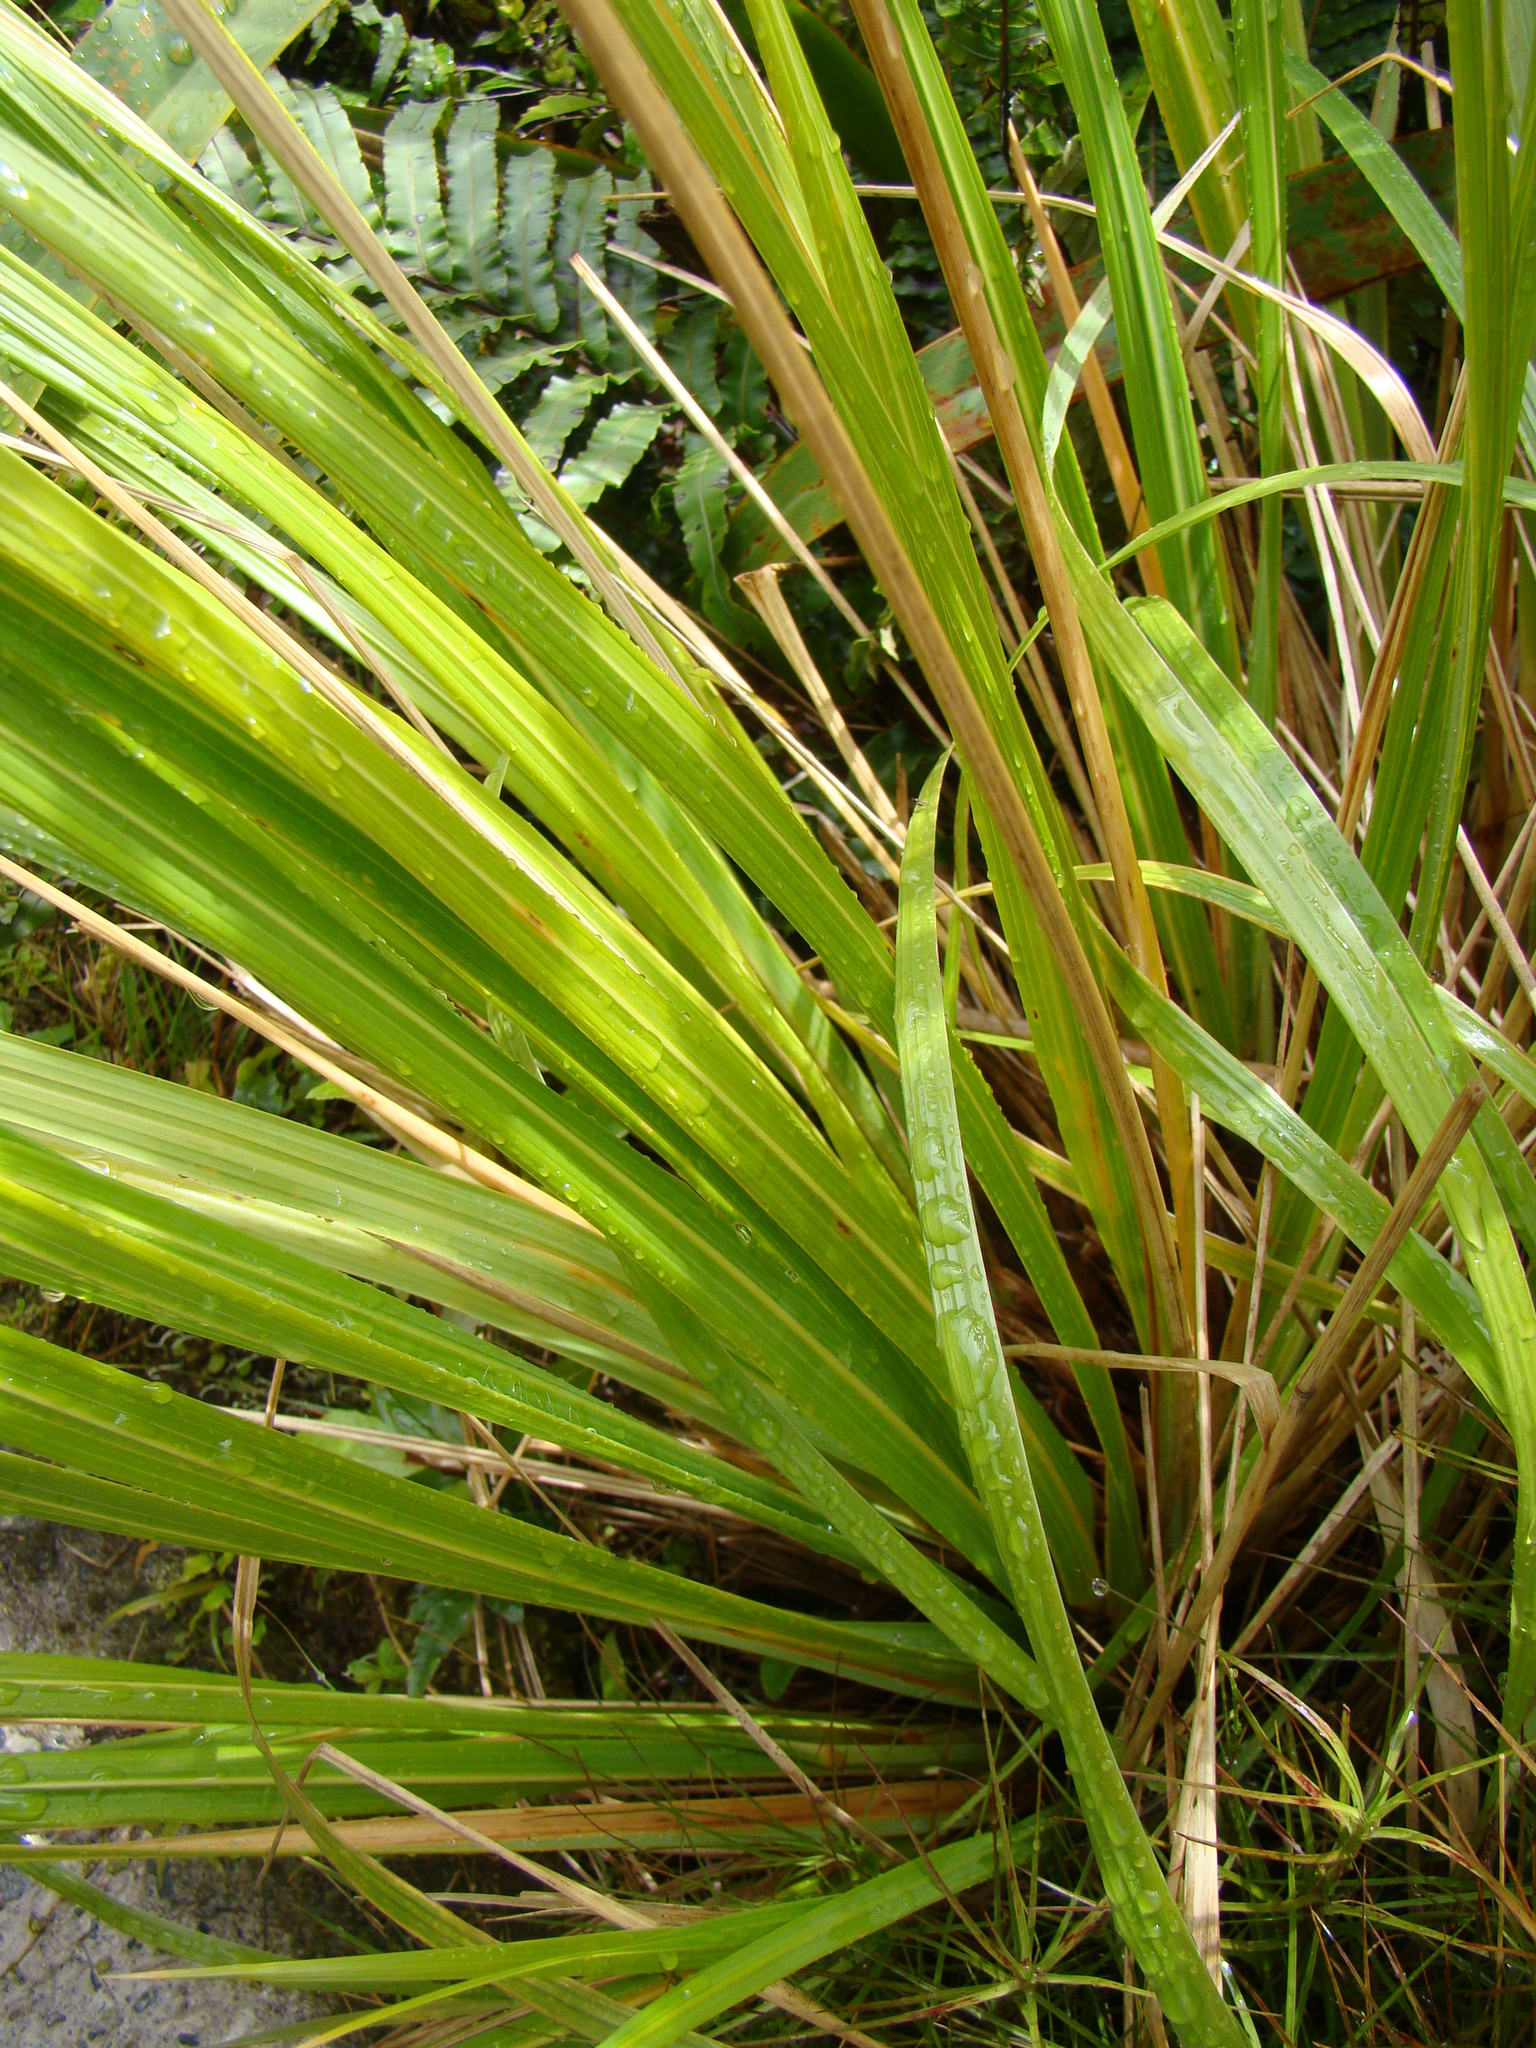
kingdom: Plantae
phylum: Tracheophyta
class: Liliopsida
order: Poales
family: Poaceae
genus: Austroderia
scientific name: Austroderia fulvida
